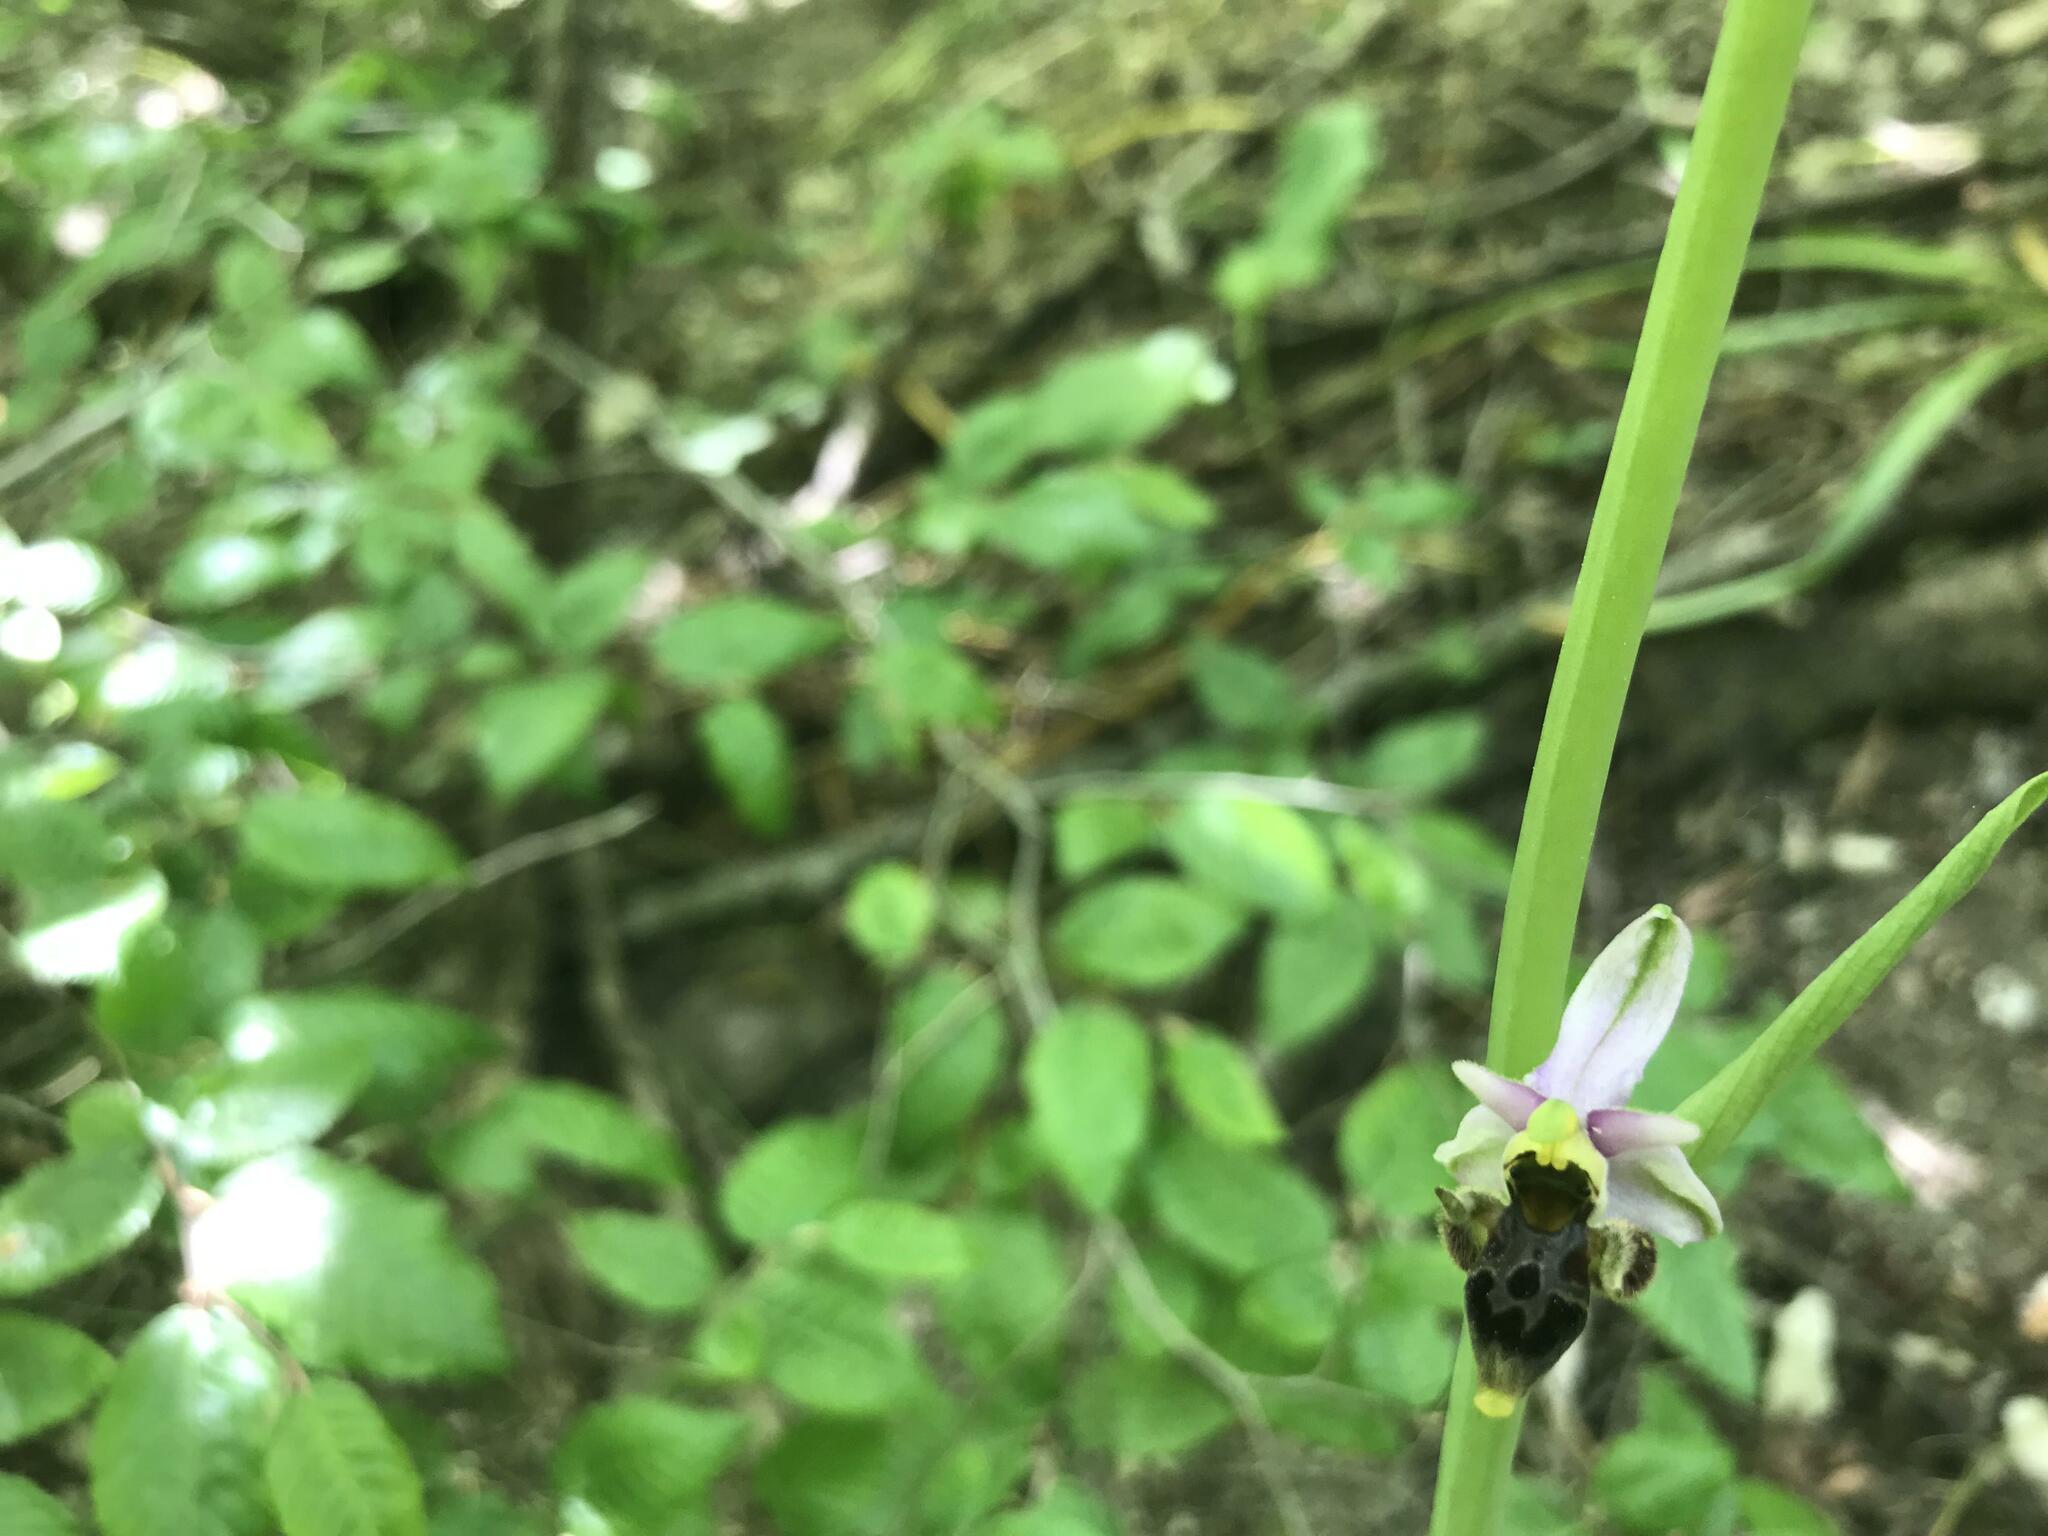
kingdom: Plantae
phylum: Tracheophyta
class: Liliopsida
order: Asparagales
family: Orchidaceae
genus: Ophrys
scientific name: Ophrys
